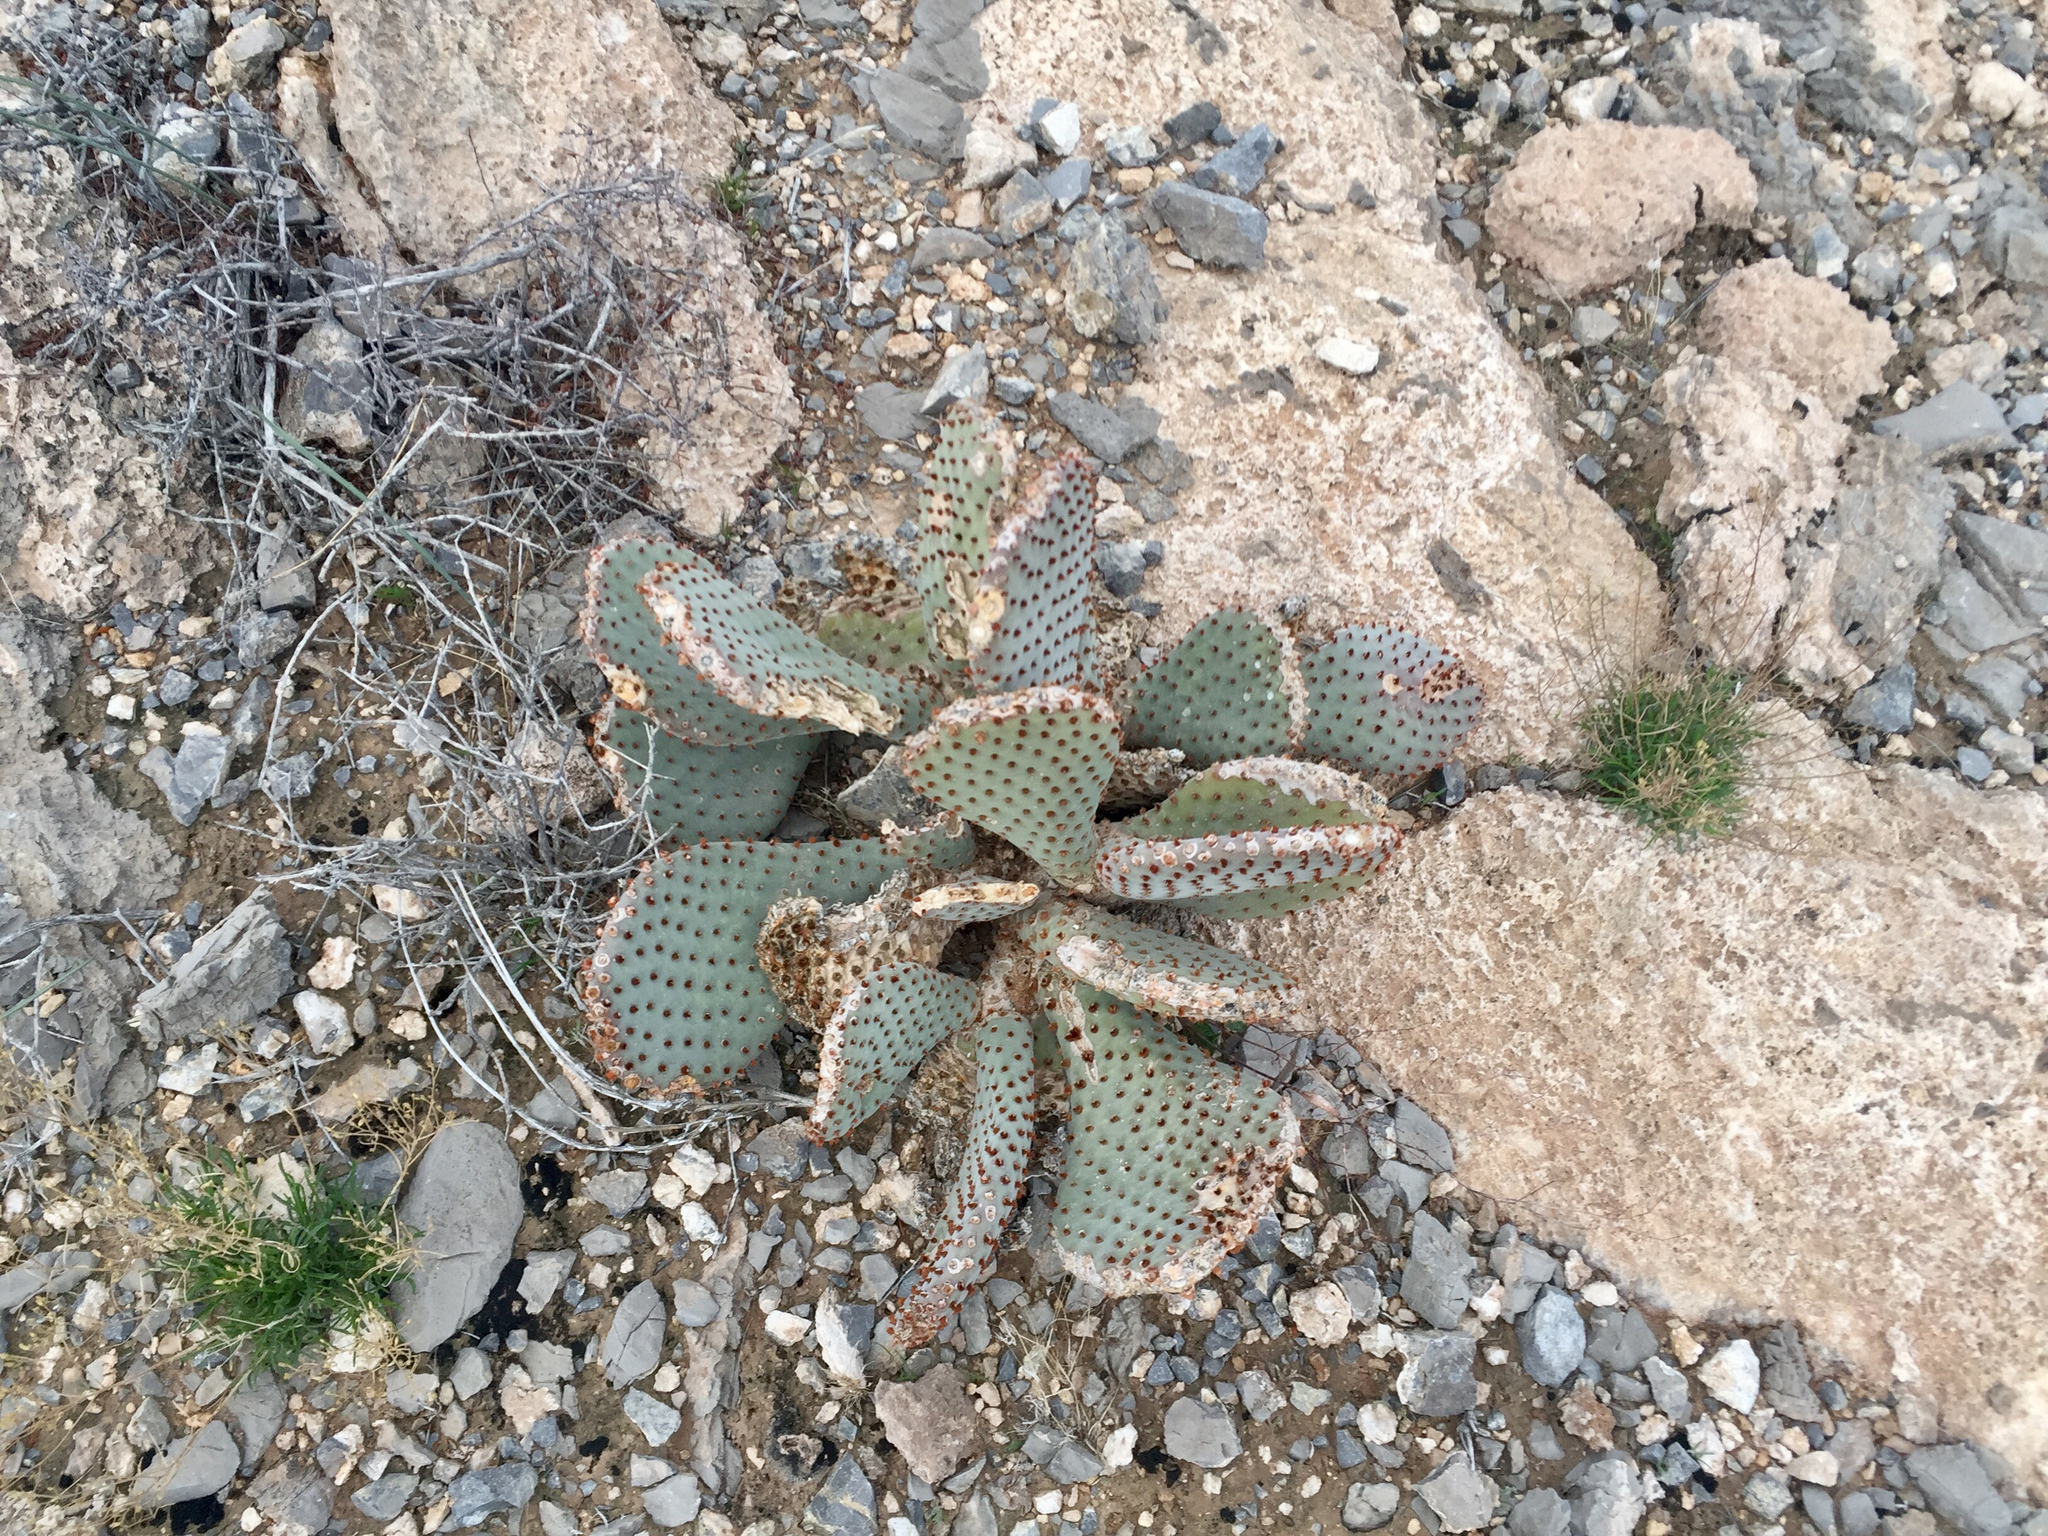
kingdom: Plantae
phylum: Tracheophyta
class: Magnoliopsida
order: Caryophyllales
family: Cactaceae
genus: Opuntia
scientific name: Opuntia basilaris
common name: Beavertail prickly-pear
